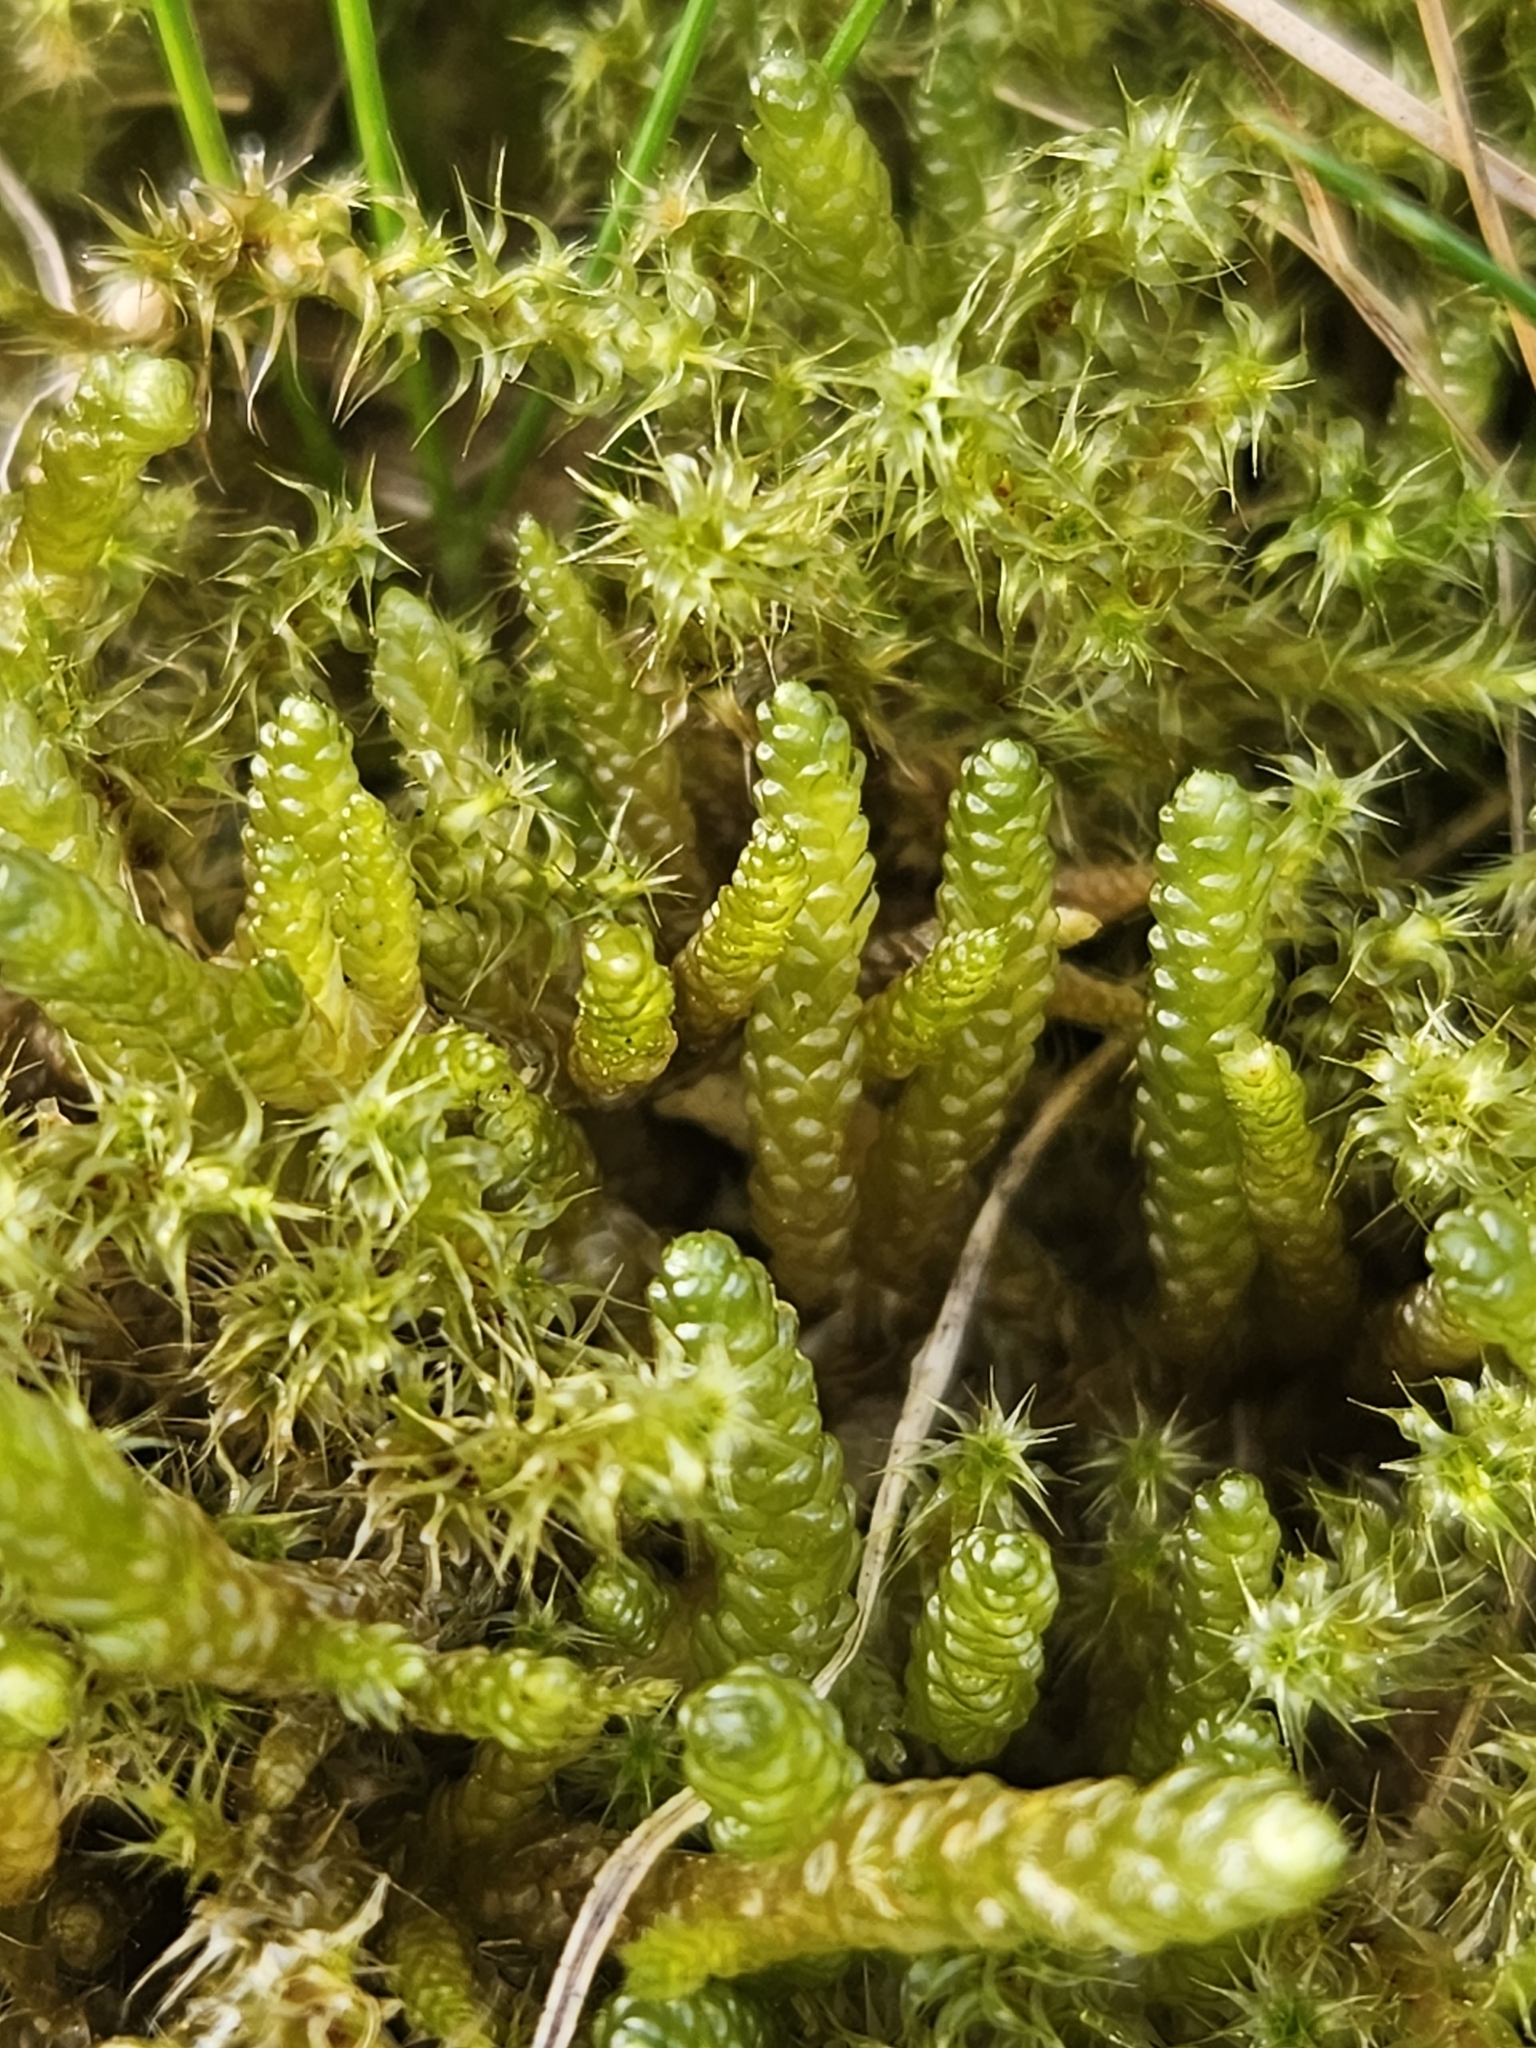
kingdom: Plantae
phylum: Bryophyta
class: Bryopsida
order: Hypnales
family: Brachytheciaceae
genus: Pseudoscleropodium
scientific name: Pseudoscleropodium purum
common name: Neat feather-moss
